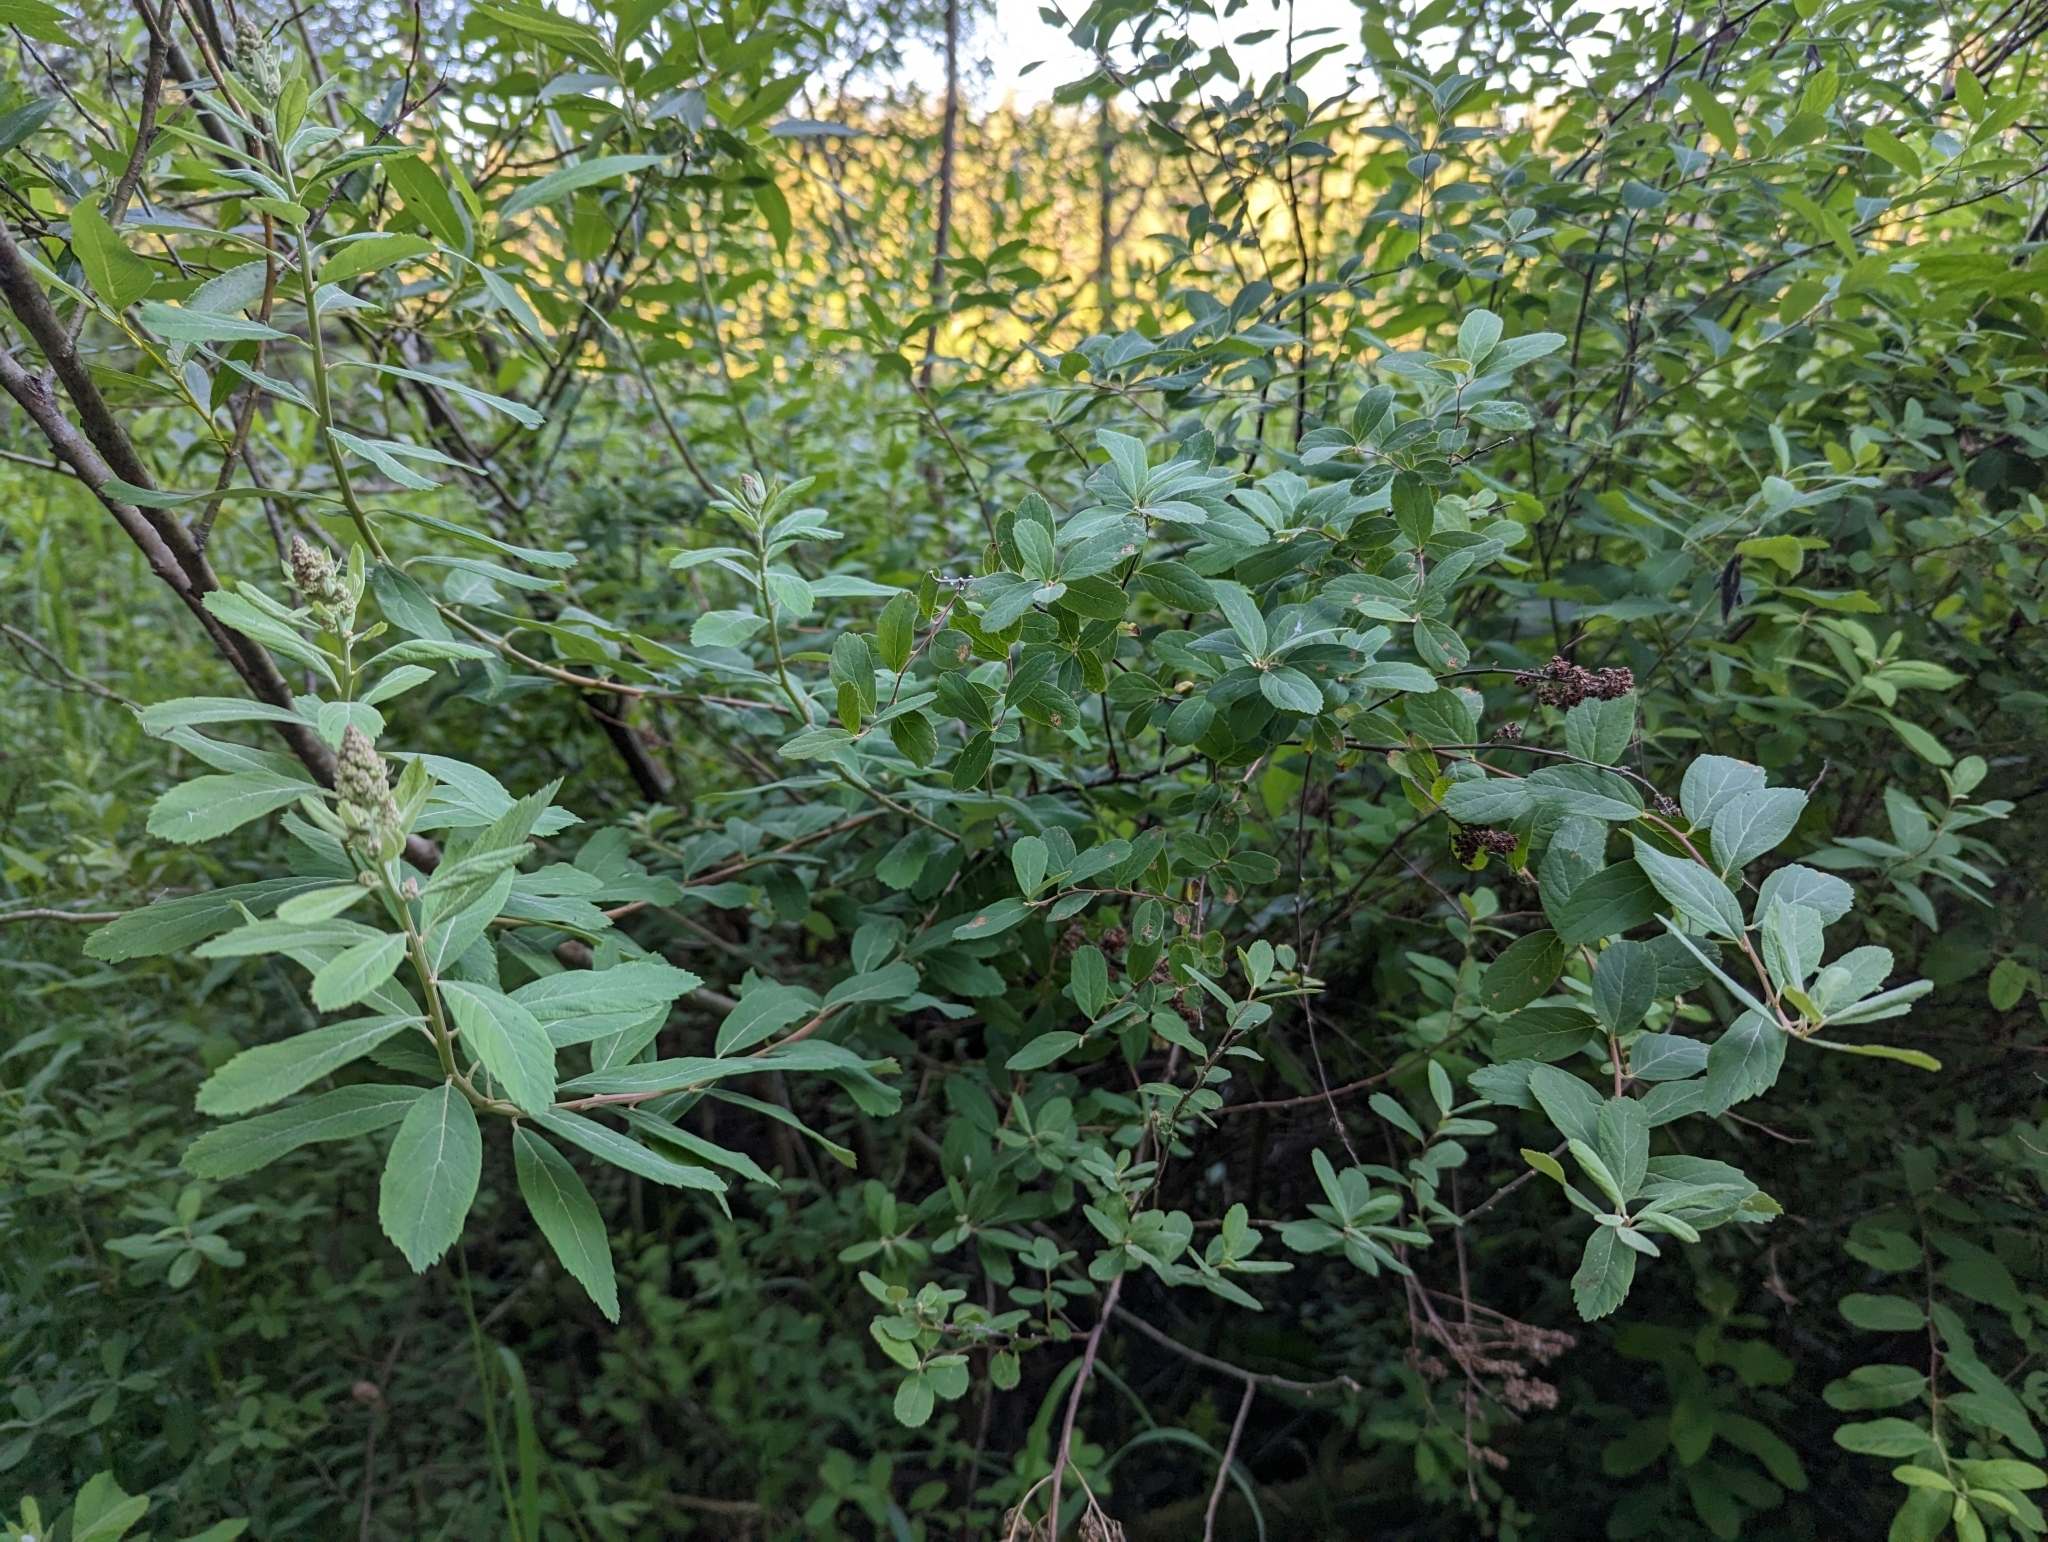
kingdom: Plantae
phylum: Tracheophyta
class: Magnoliopsida
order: Rosales
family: Rosaceae
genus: Spiraea
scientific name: Spiraea douglasii
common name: Steeplebush
